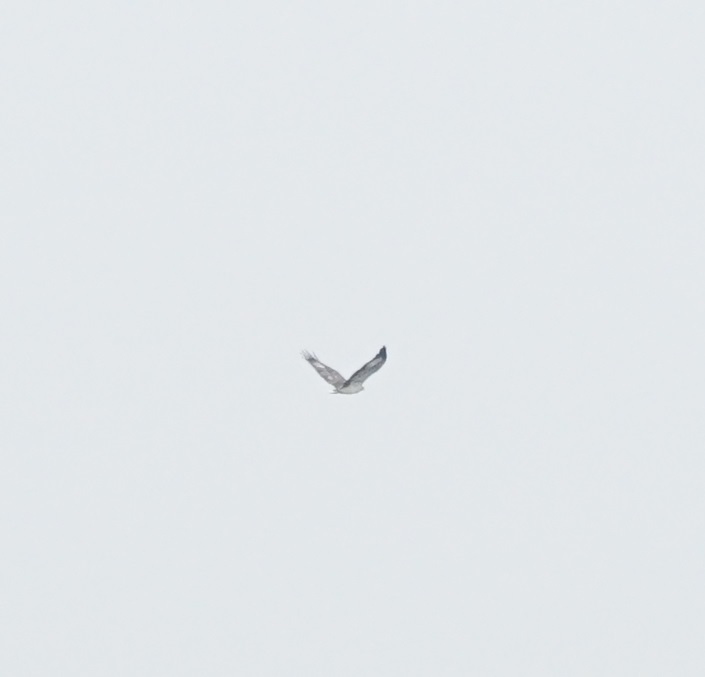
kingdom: Animalia
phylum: Chordata
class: Aves
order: Accipitriformes
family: Accipitridae
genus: Haliaeetus
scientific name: Haliaeetus leucogaster
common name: White-bellied sea eagle
